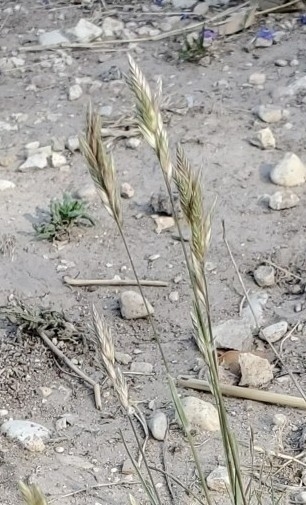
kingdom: Plantae
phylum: Tracheophyta
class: Liliopsida
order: Poales
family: Poaceae
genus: Erioneuron
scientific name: Erioneuron pilosum
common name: Hairy woolly grass
